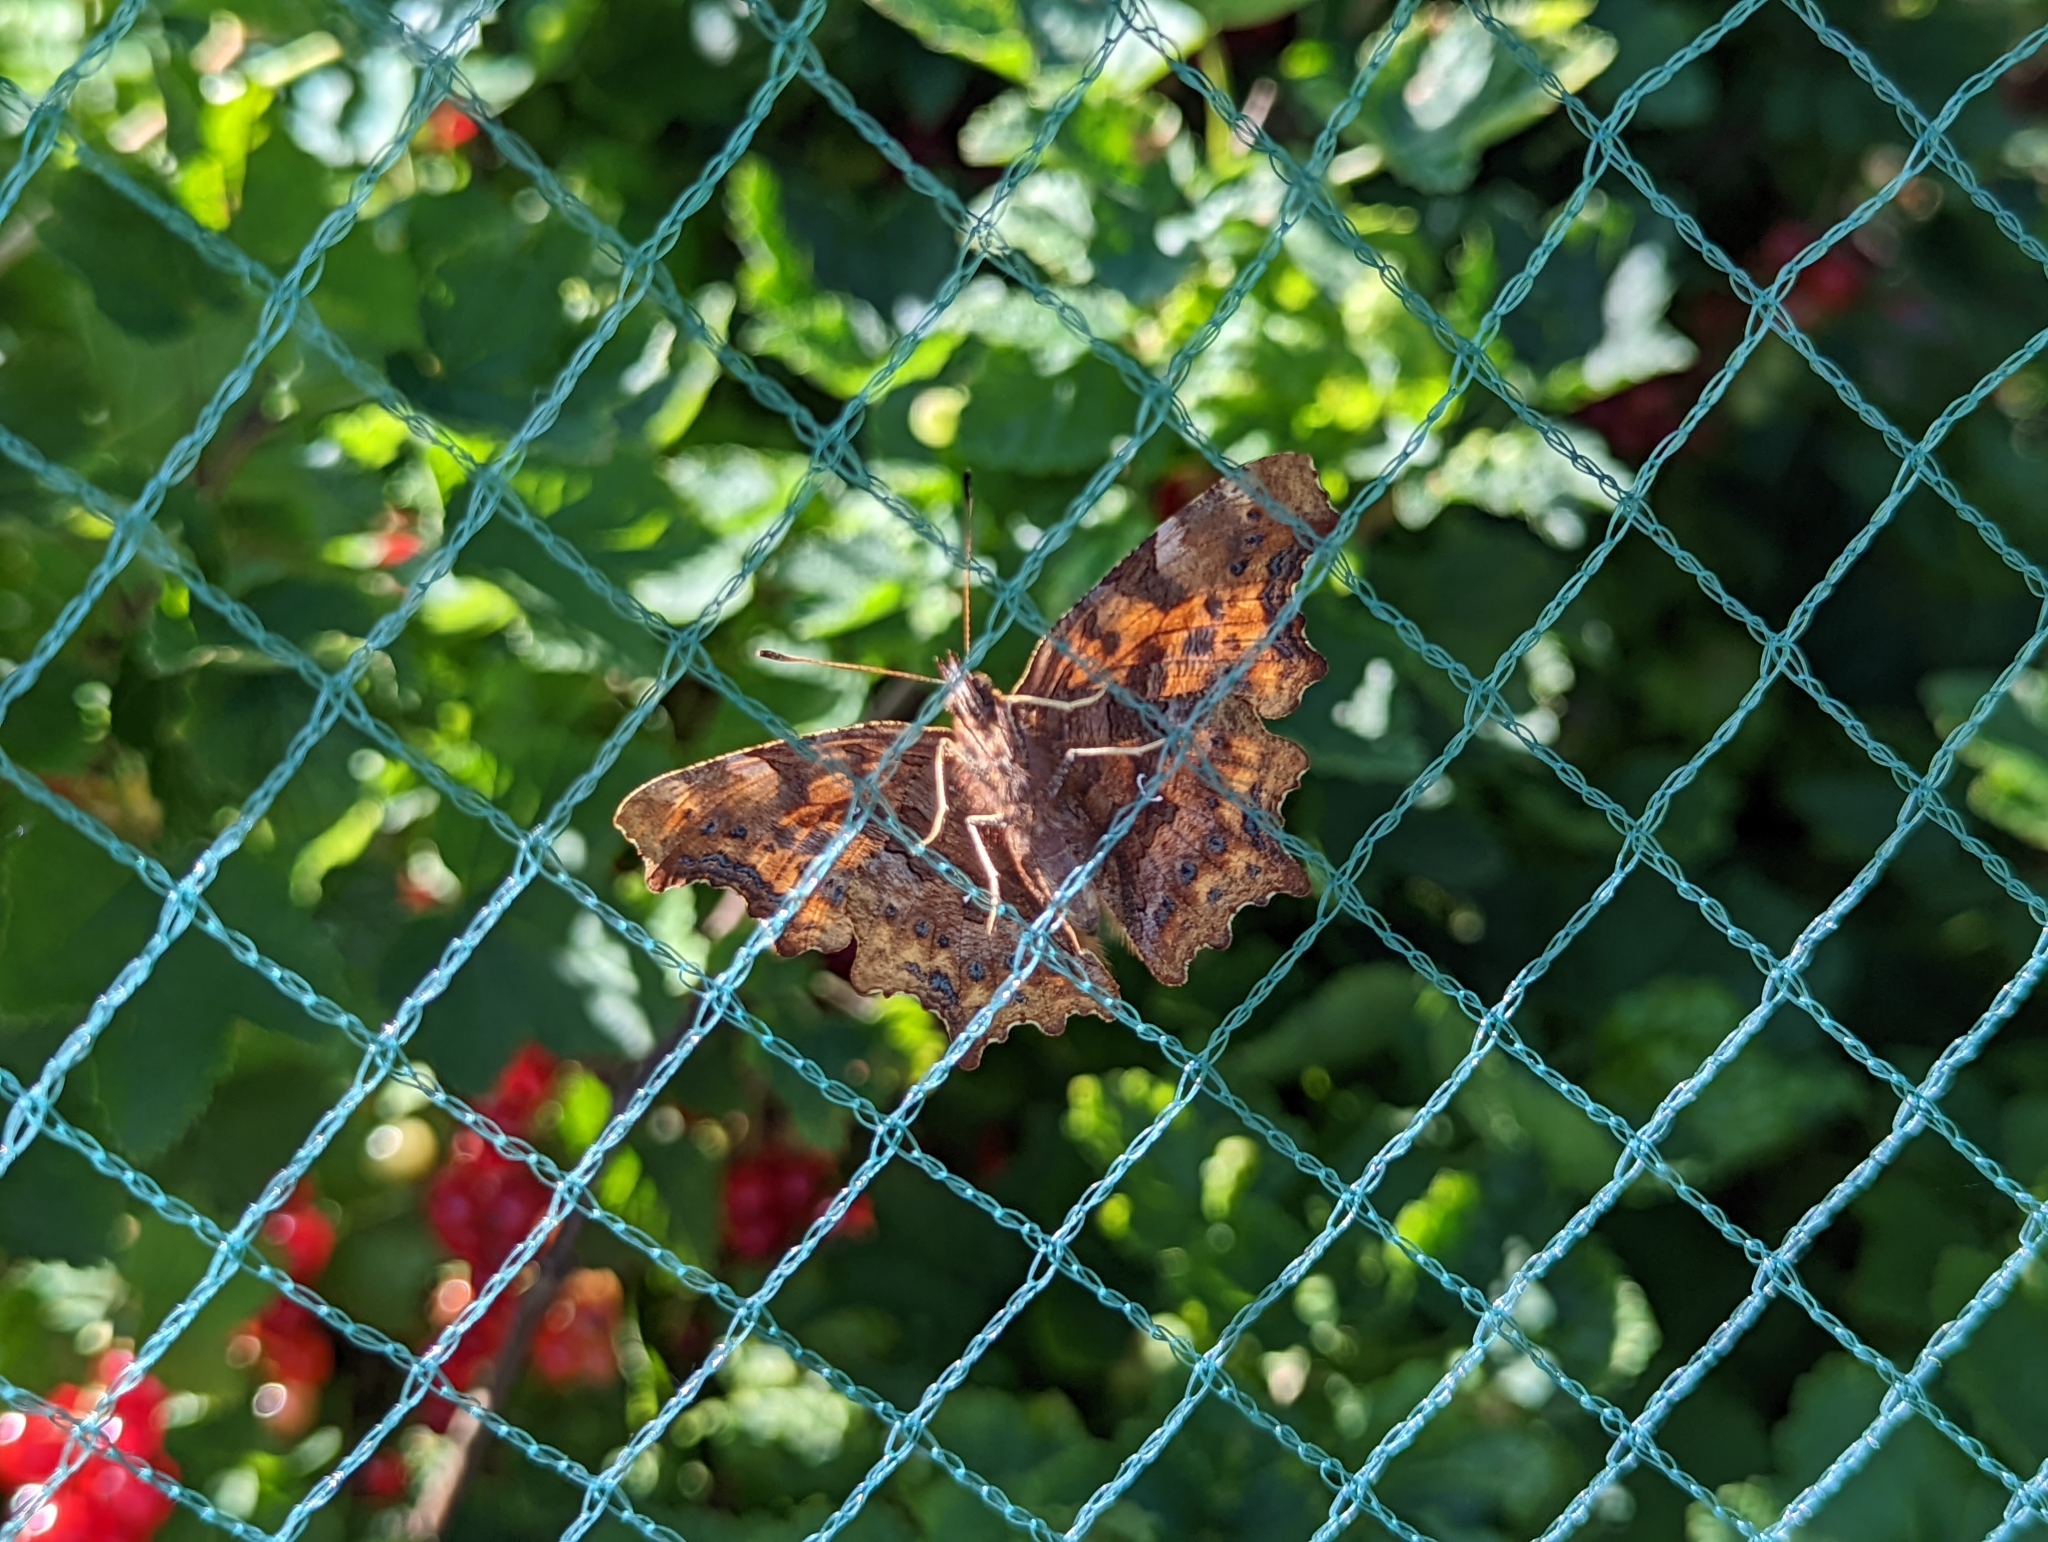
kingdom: Animalia
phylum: Arthropoda
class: Insecta
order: Lepidoptera
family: Nymphalidae
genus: Polygonia
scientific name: Polygonia c-album
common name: Comma
